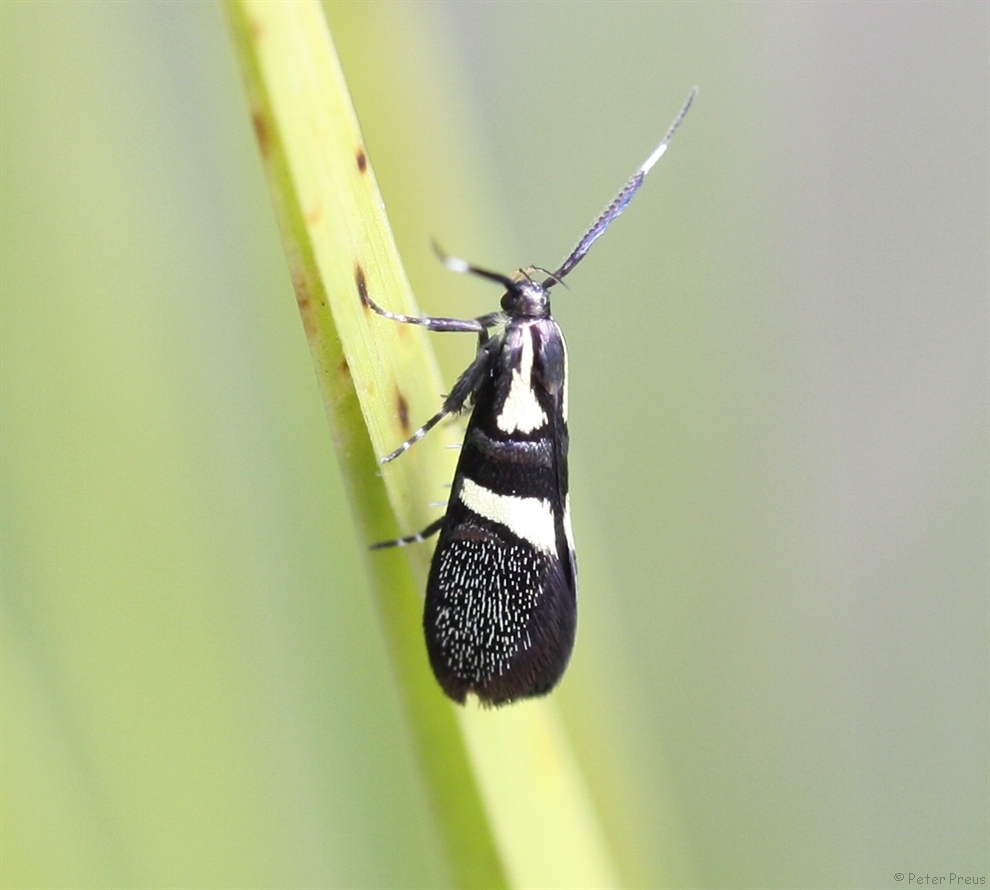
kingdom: Animalia
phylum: Arthropoda
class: Insecta
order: Lepidoptera
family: Oecophoridae
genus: Dafa
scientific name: Dafa oliviella
